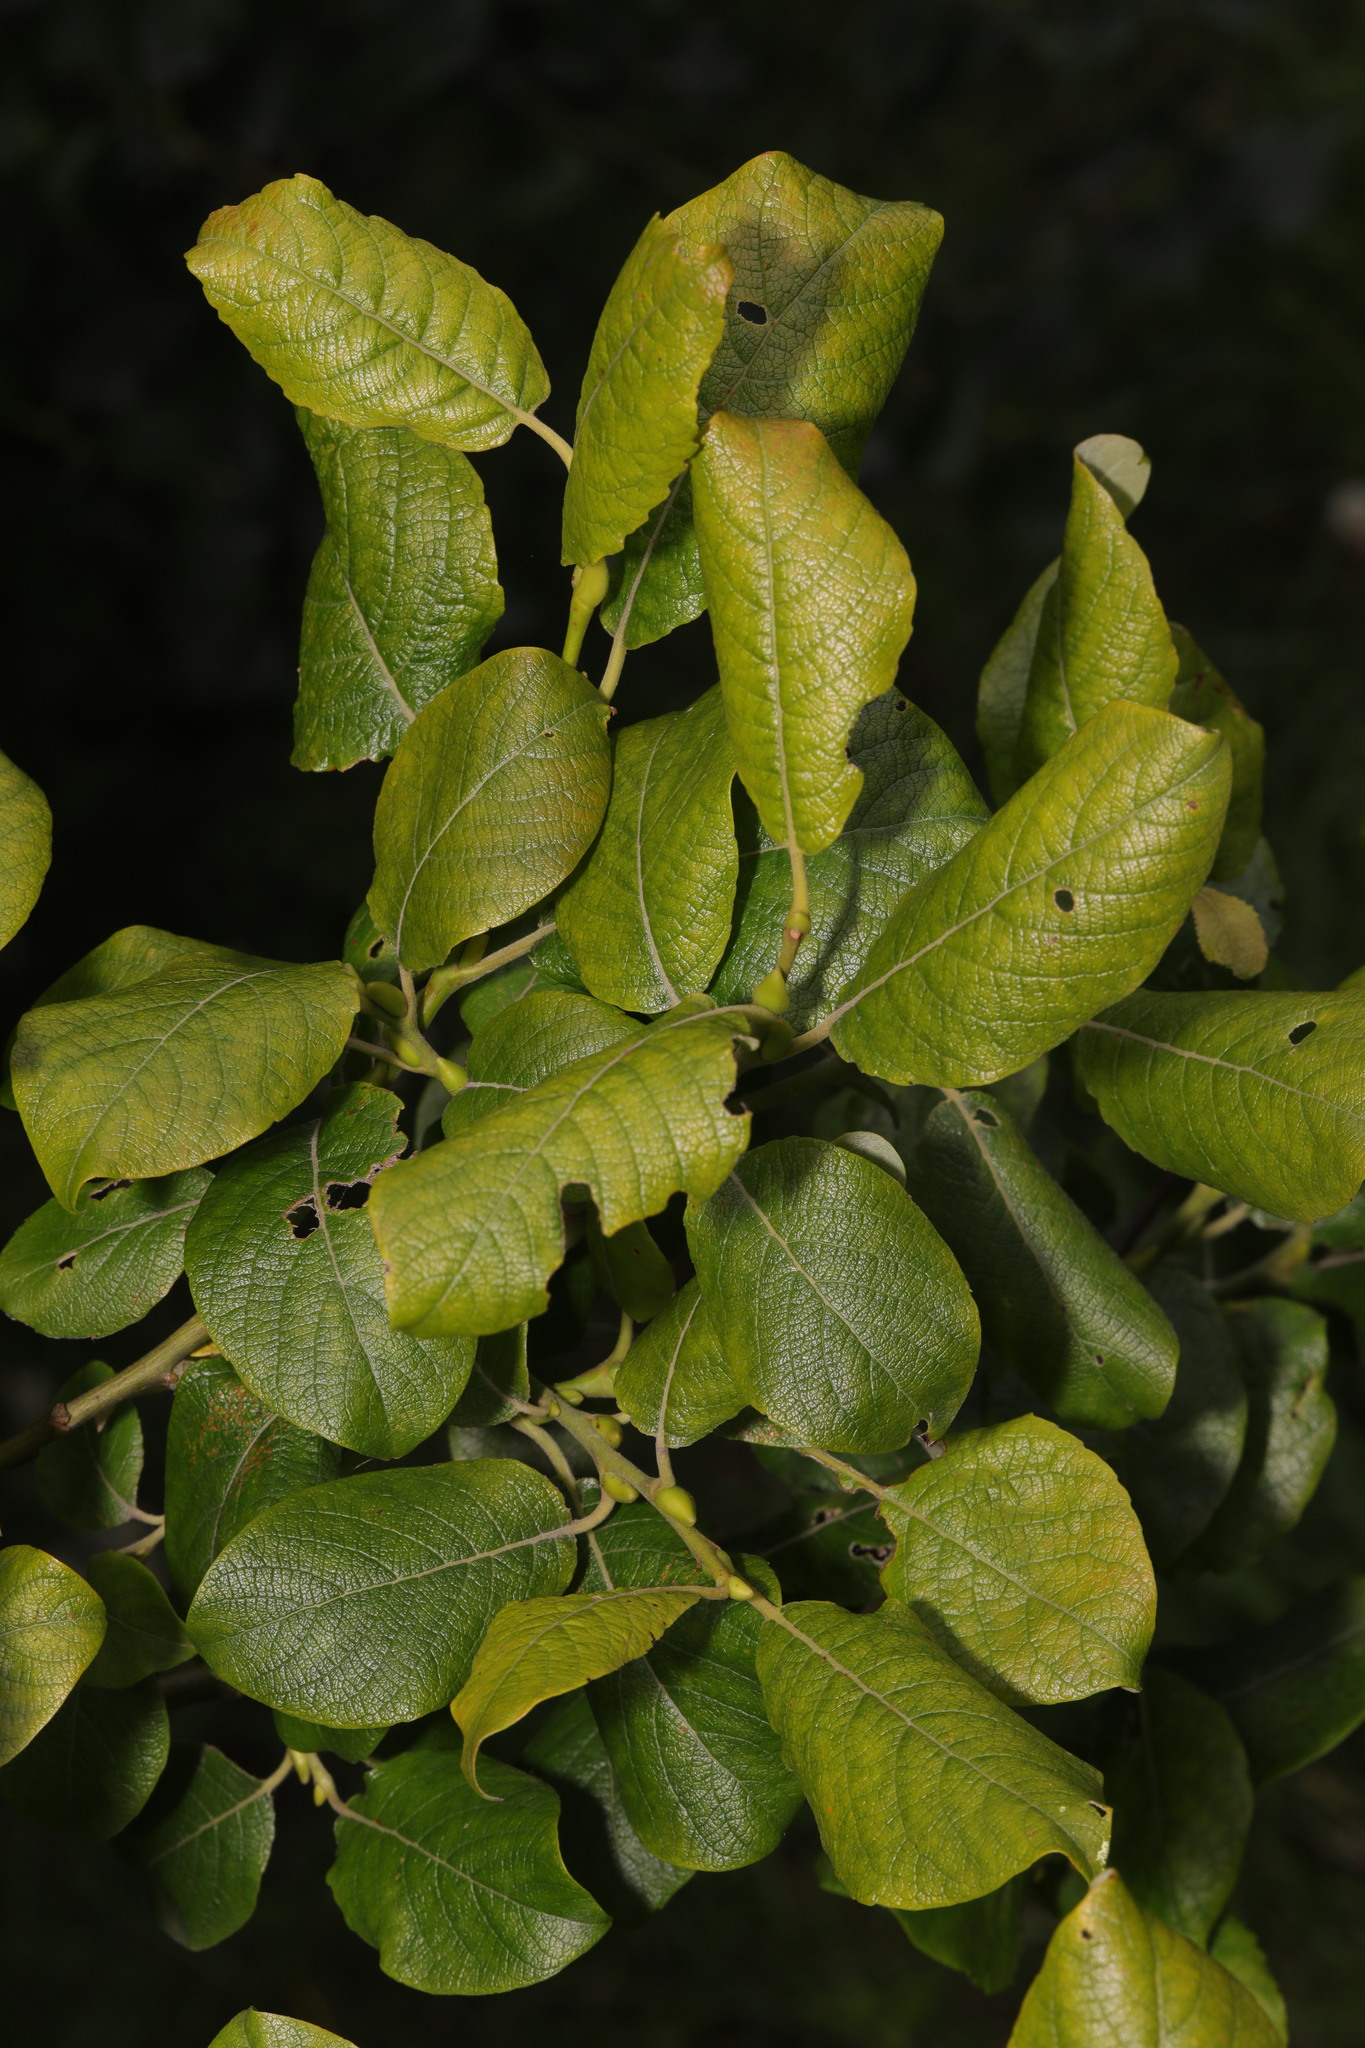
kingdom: Plantae
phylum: Tracheophyta
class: Magnoliopsida
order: Malpighiales
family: Salicaceae
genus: Salix
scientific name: Salix caprea
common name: Goat willow
